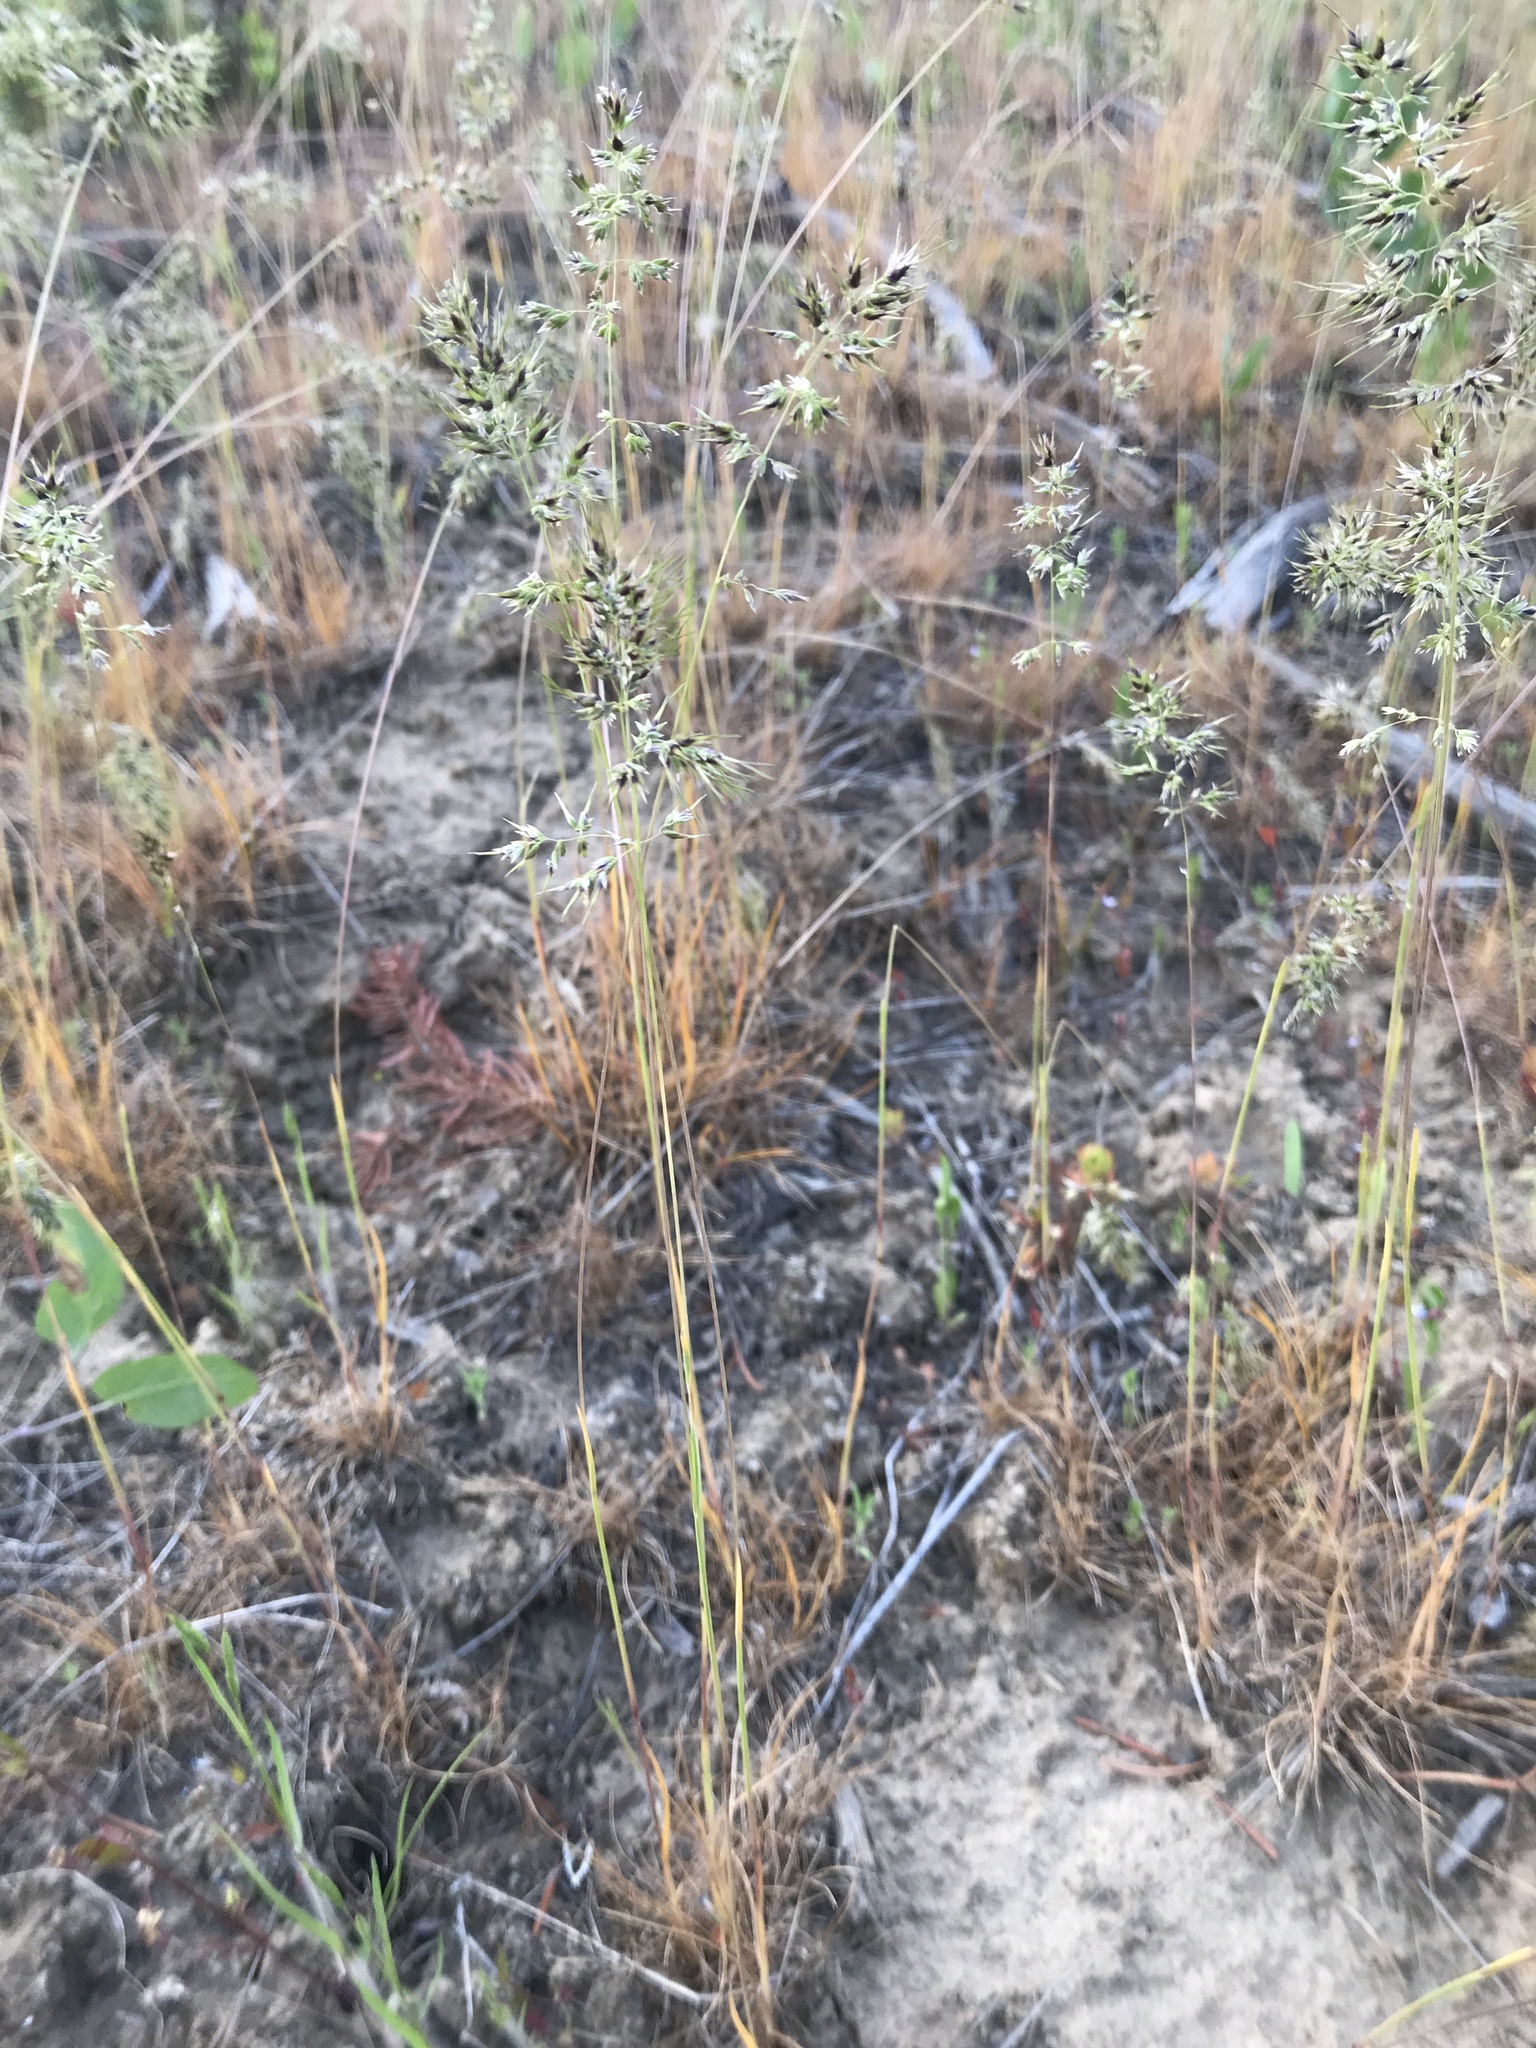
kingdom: Plantae
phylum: Tracheophyta
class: Liliopsida
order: Poales
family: Poaceae
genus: Poa
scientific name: Poa bulbosa
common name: Bulbous bluegrass
